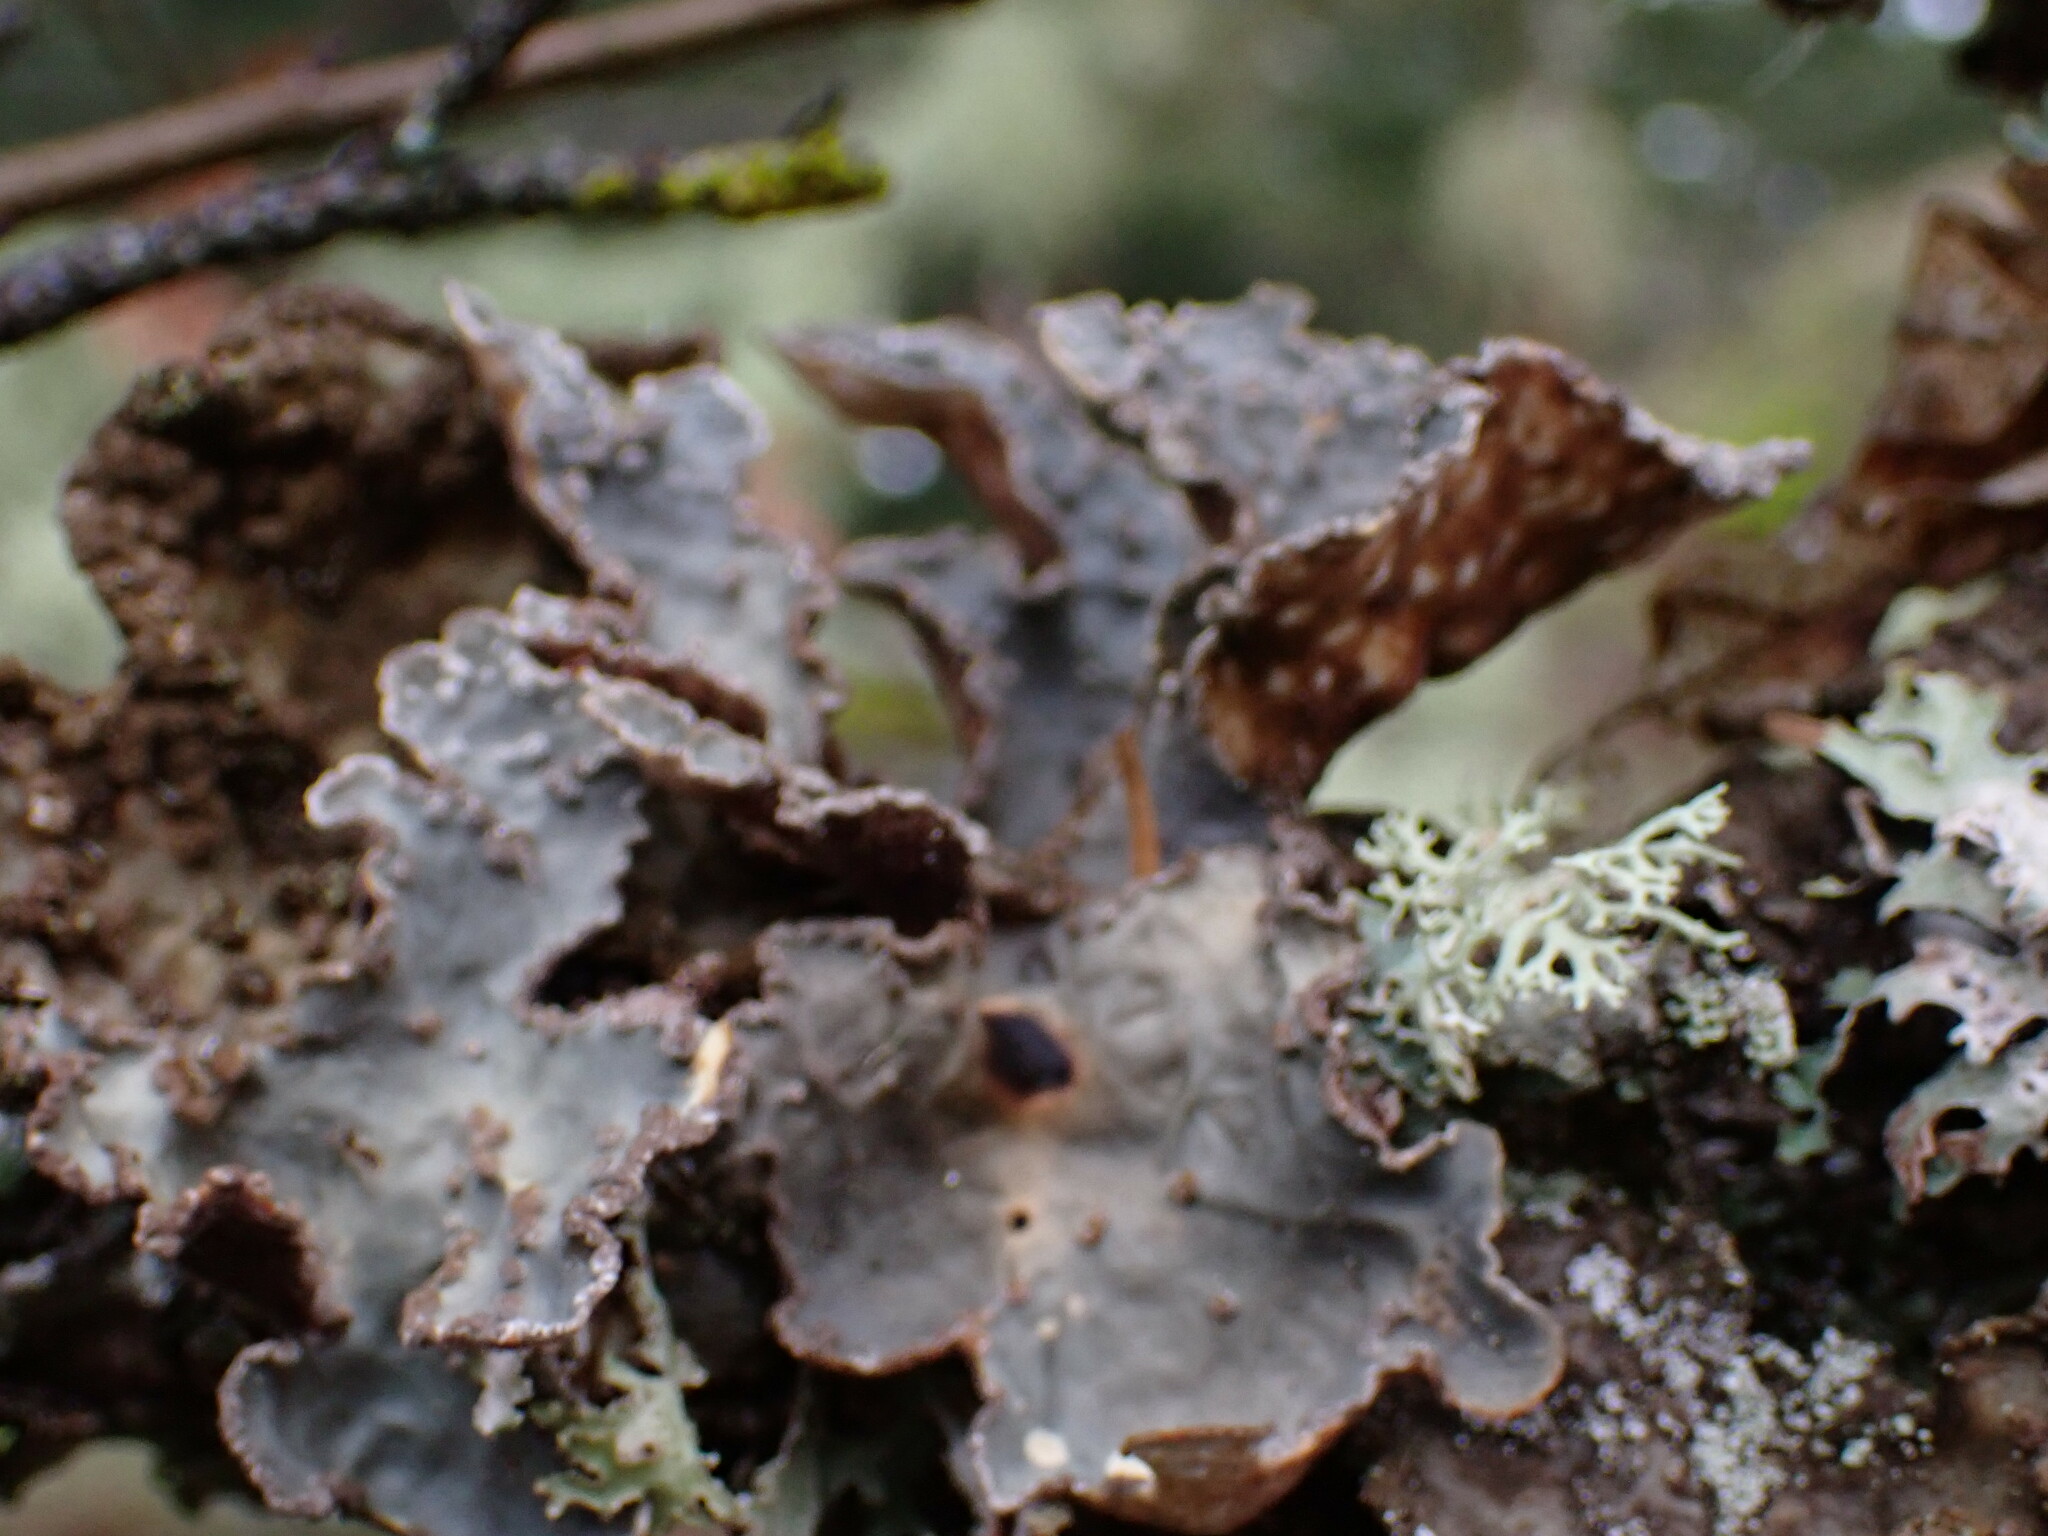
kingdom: Fungi
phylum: Ascomycota
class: Lecanoromycetes
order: Peltigerales
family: Lobariaceae
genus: Lobarina
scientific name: Lobarina scrobiculata
